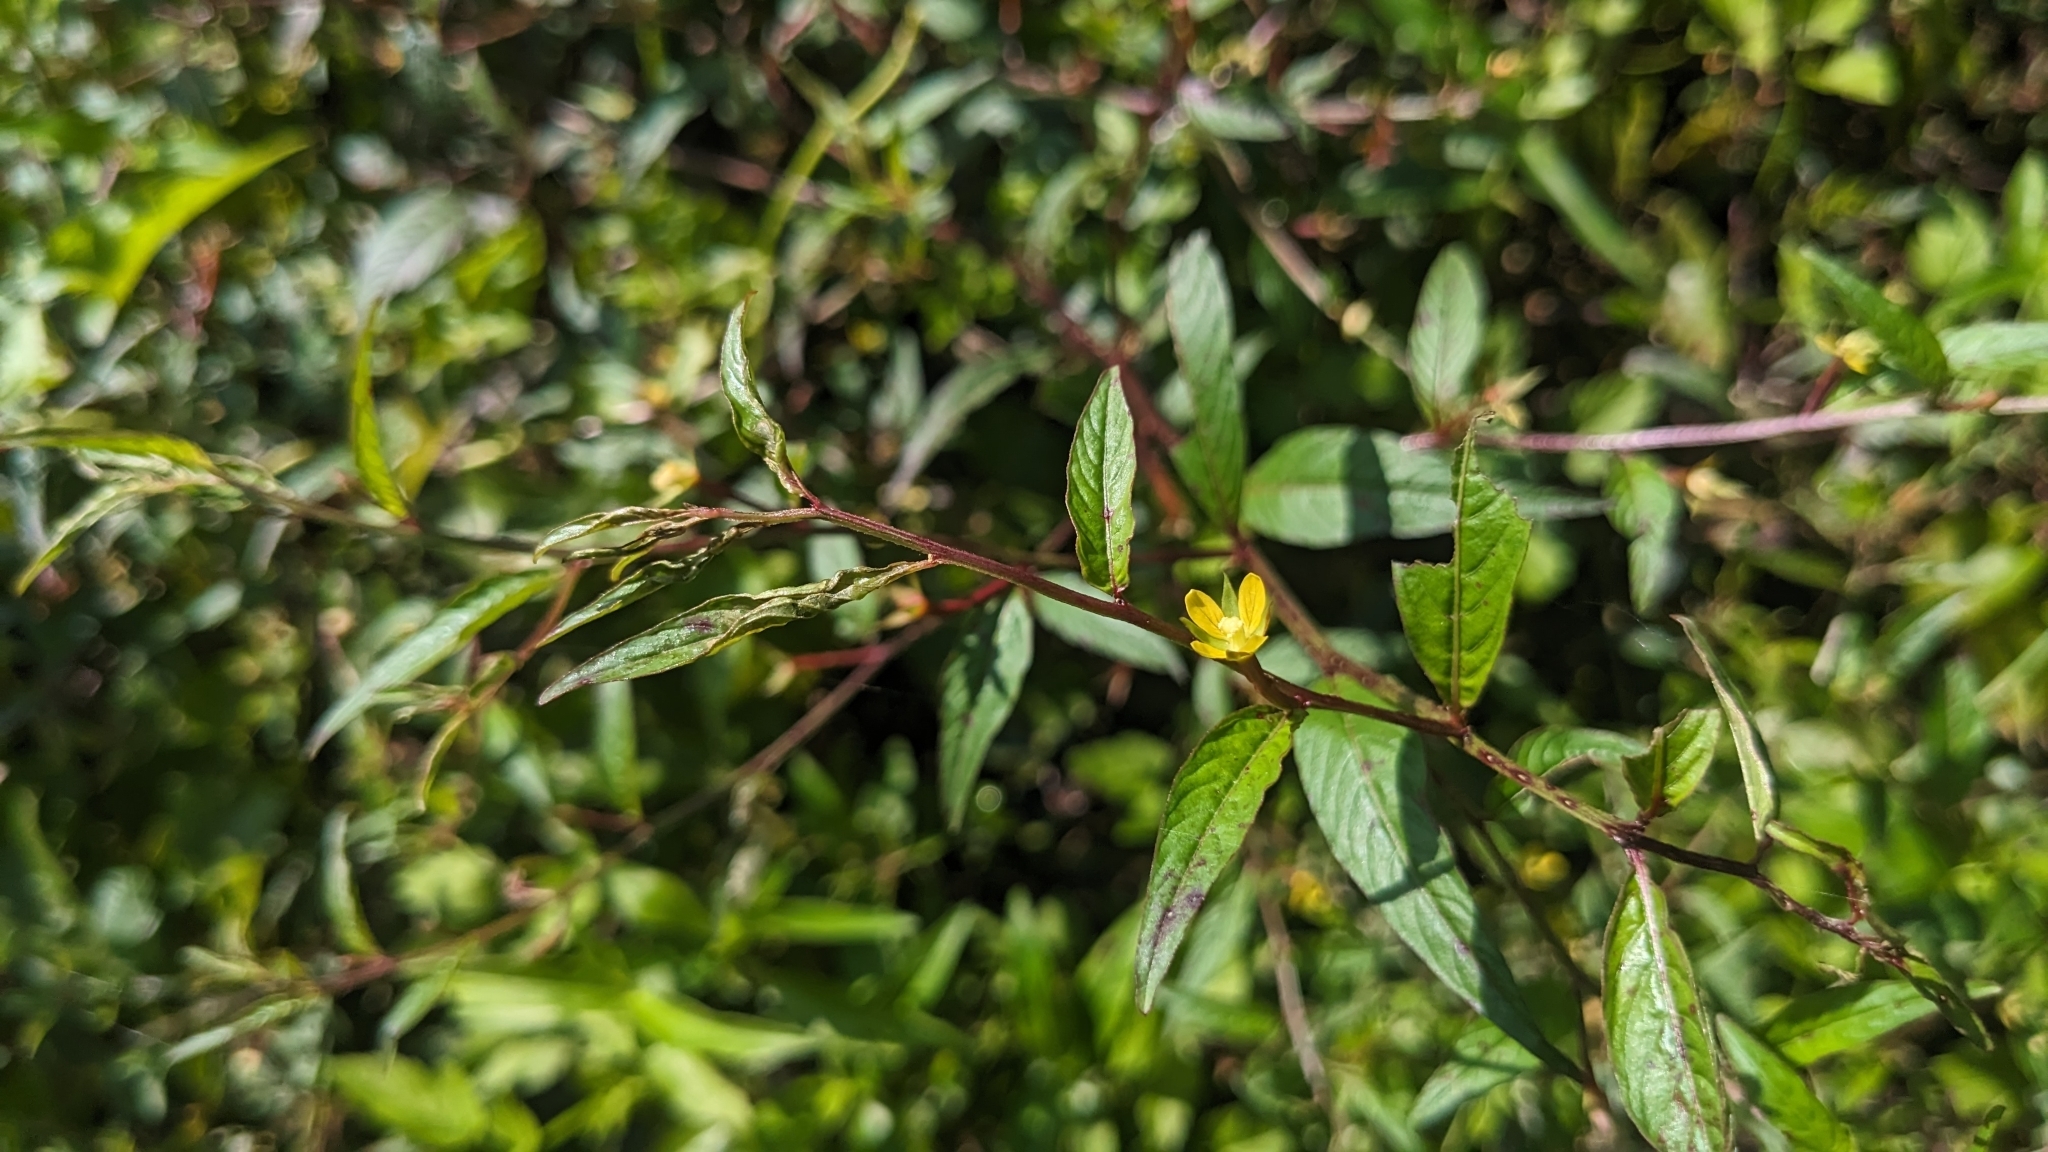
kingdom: Plantae
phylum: Tracheophyta
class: Magnoliopsida
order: Myrtales
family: Onagraceae
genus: Ludwigia
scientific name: Ludwigia hyssopifolia
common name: Linear leaf water primrose
